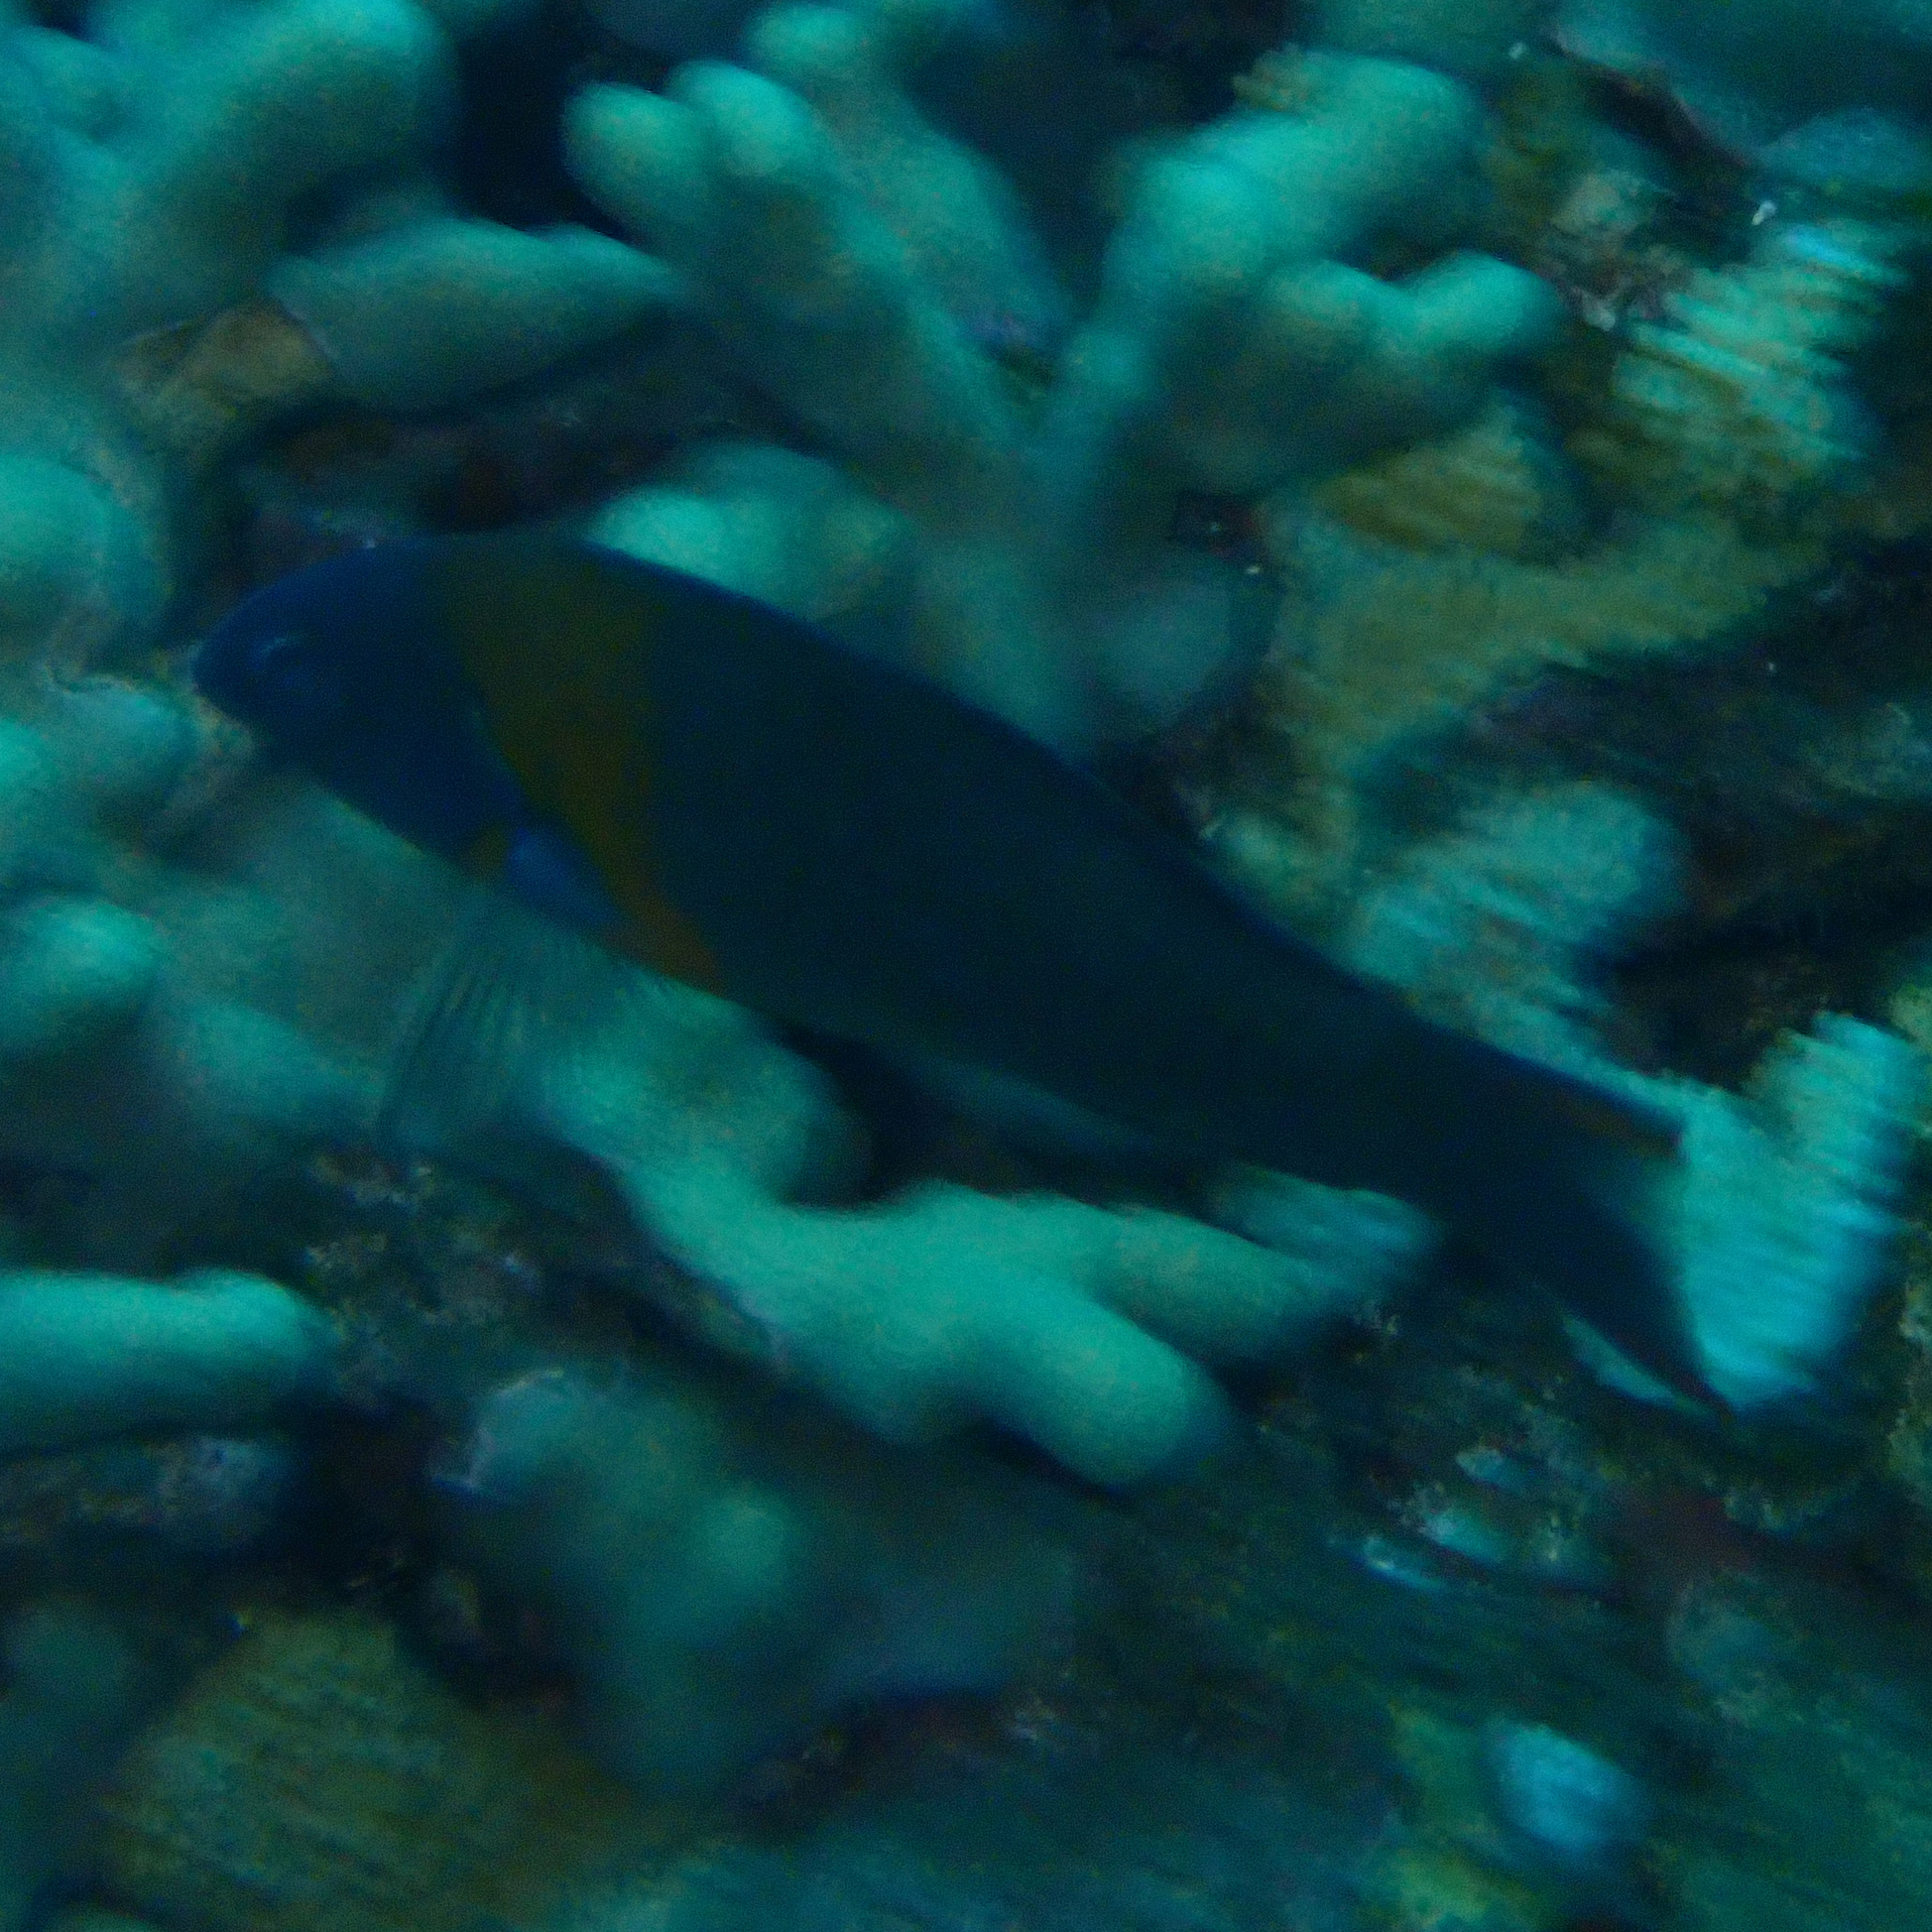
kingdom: Animalia
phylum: Chordata
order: Perciformes
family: Labridae
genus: Thalassoma
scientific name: Thalassoma duperrey
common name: Saddle wrasse
